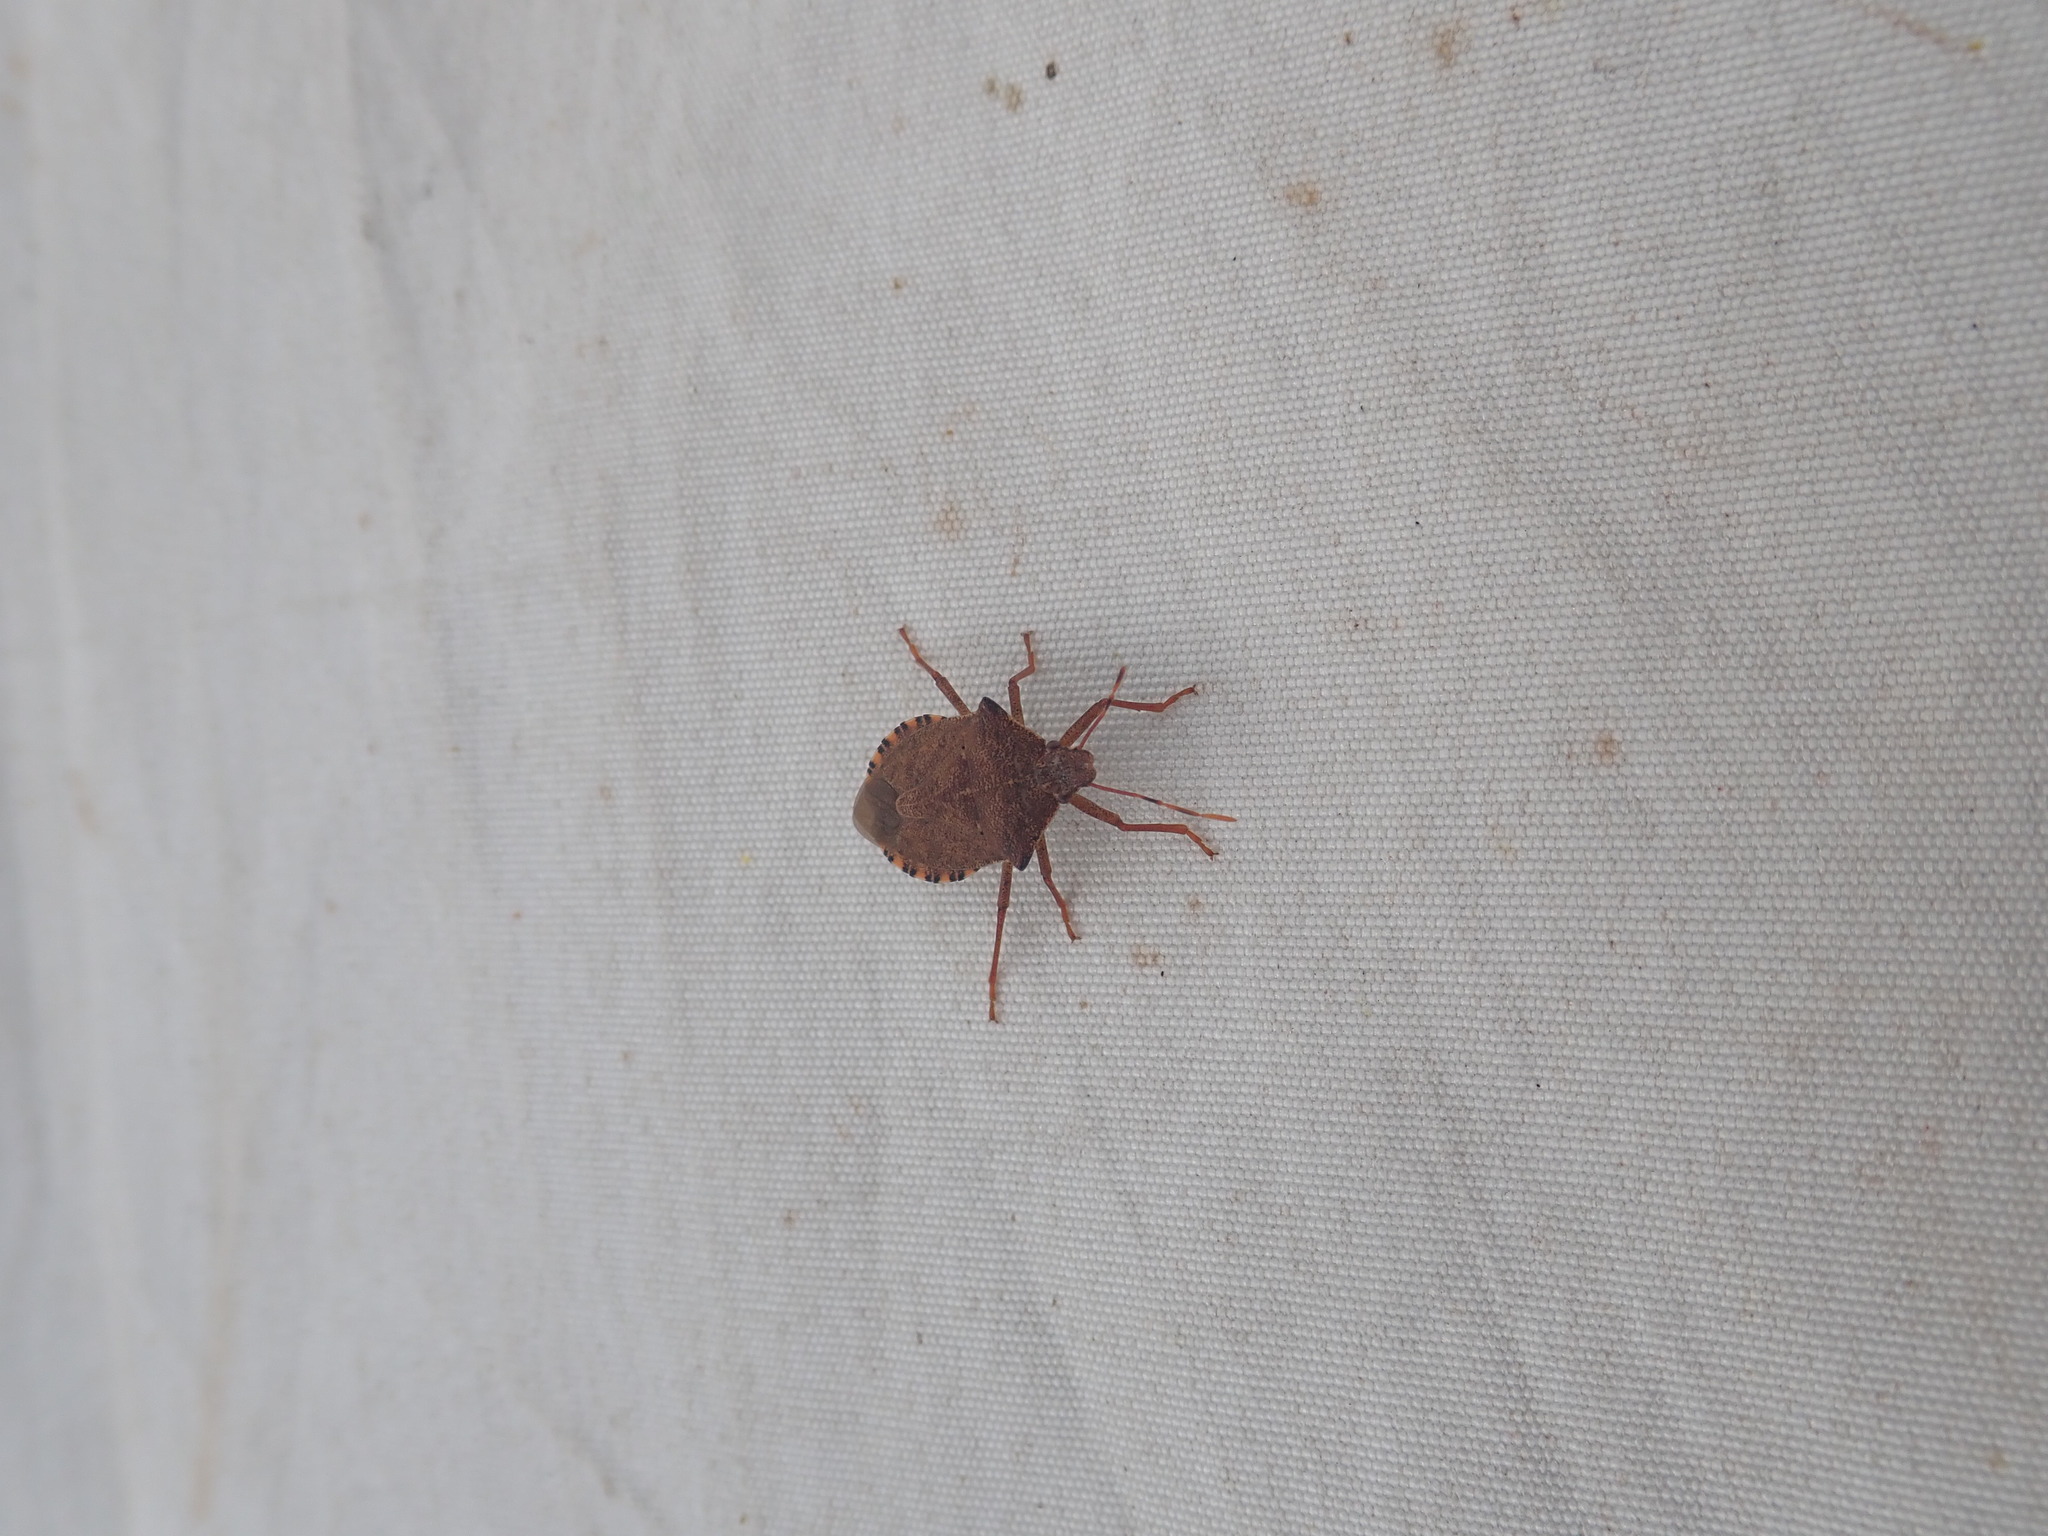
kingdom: Animalia
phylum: Arthropoda
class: Insecta
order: Hemiptera
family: Pentatomidae
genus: Arma
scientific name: Arma custos
